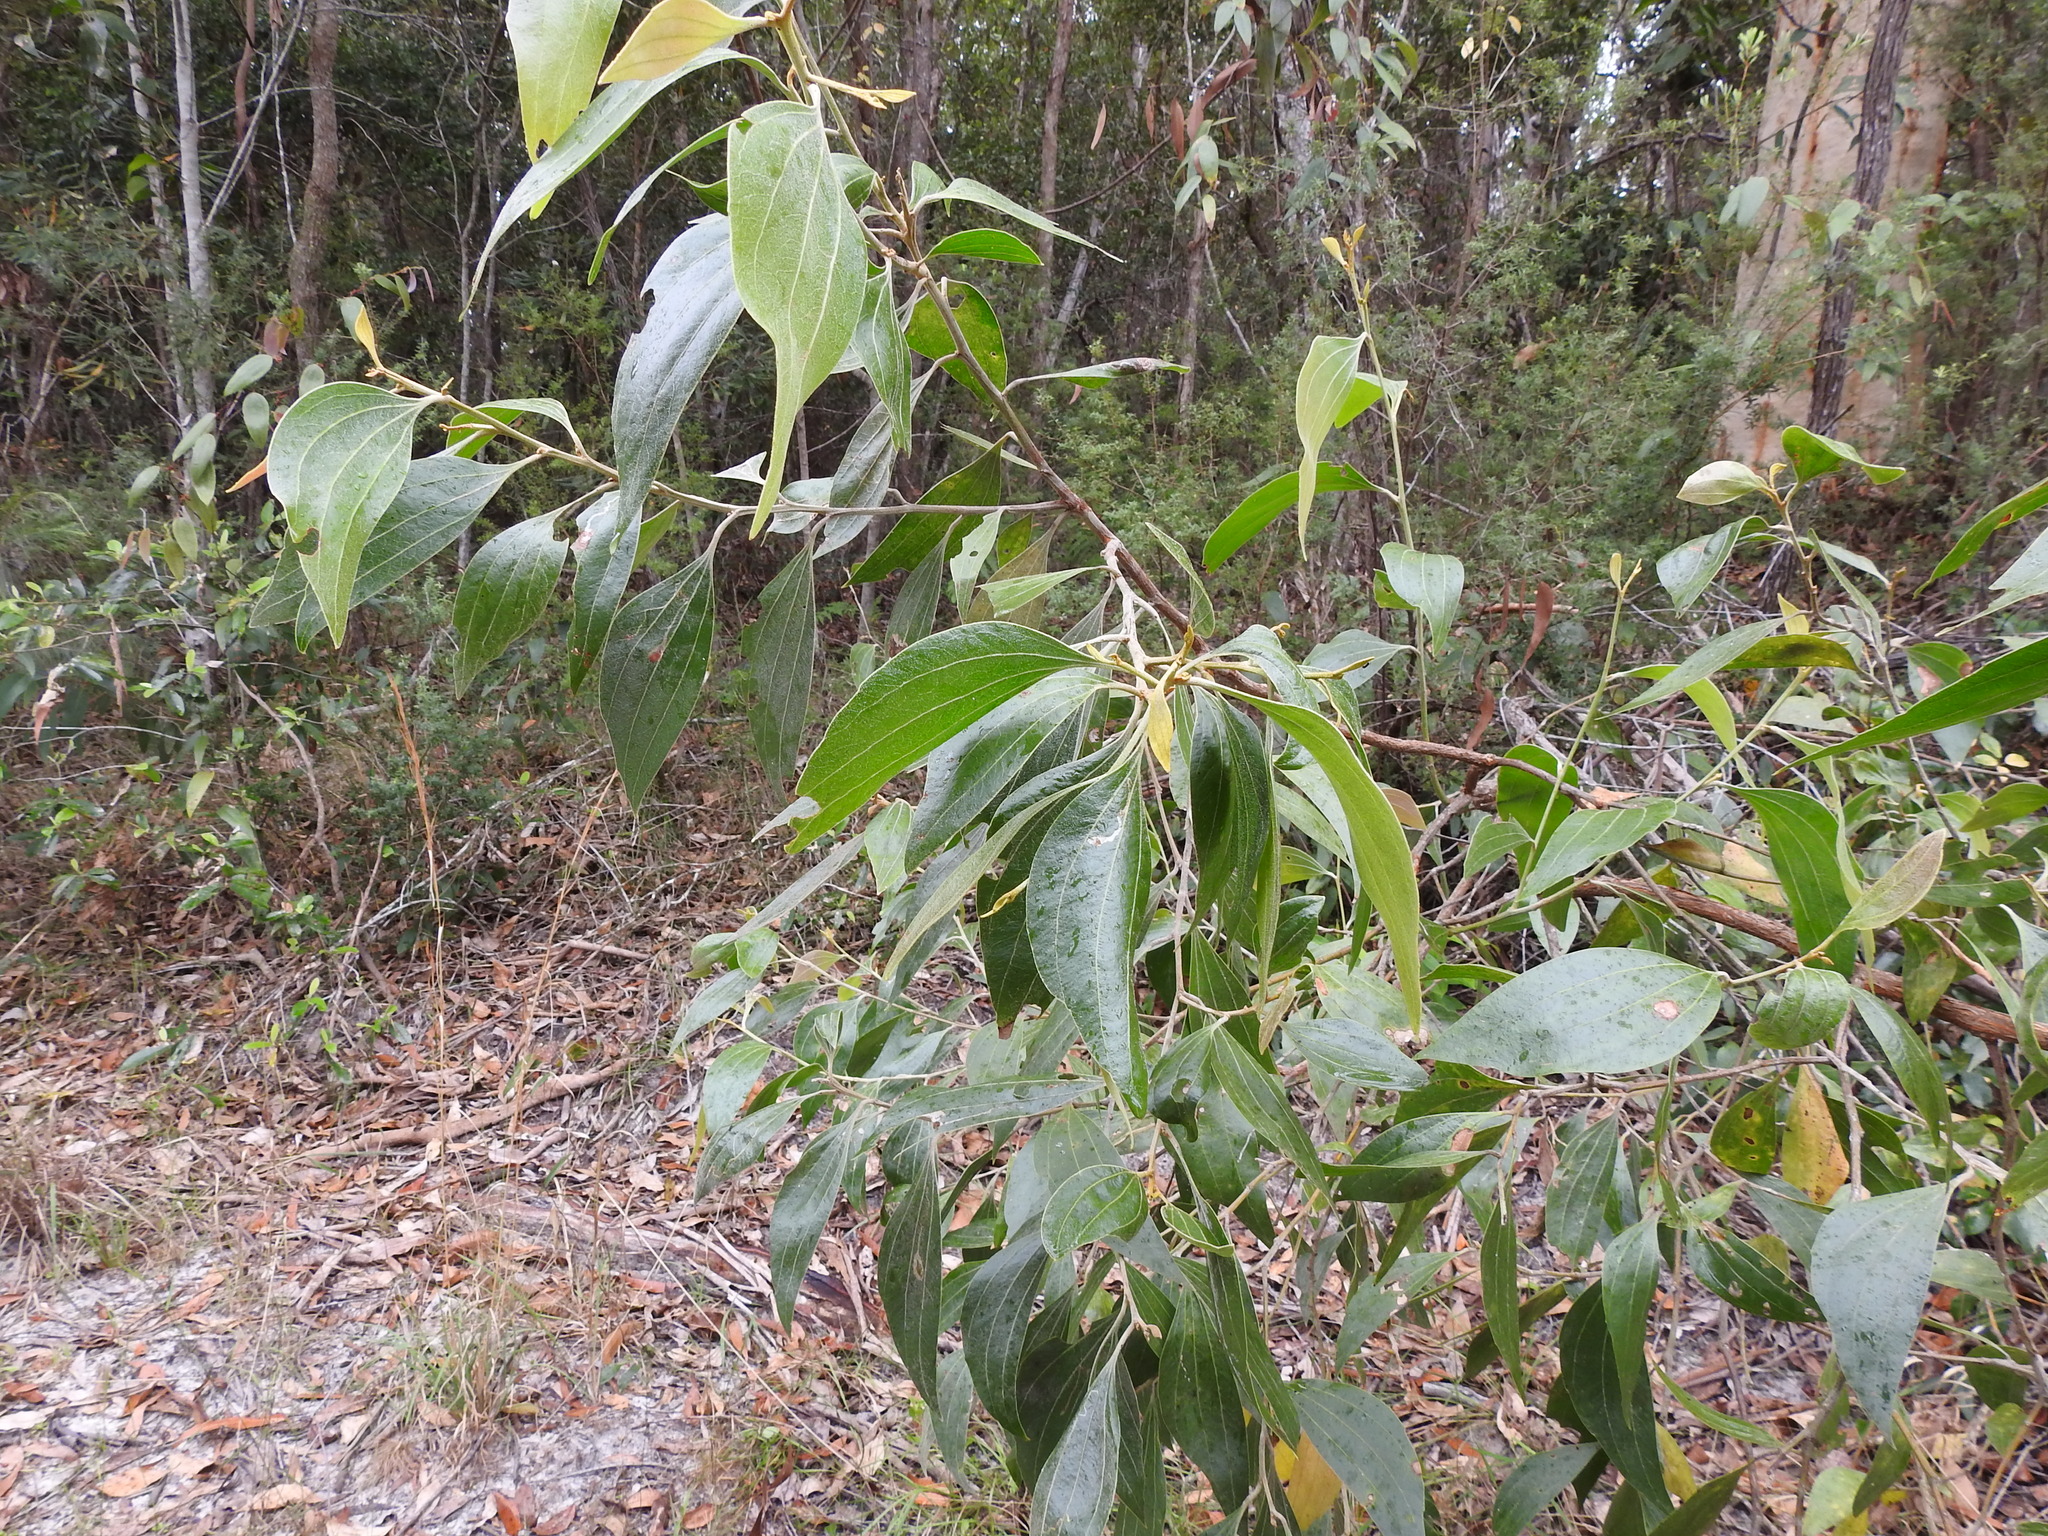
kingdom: Plantae
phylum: Tracheophyta
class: Magnoliopsida
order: Fabales
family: Fabaceae
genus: Acacia
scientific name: Acacia flavescens
